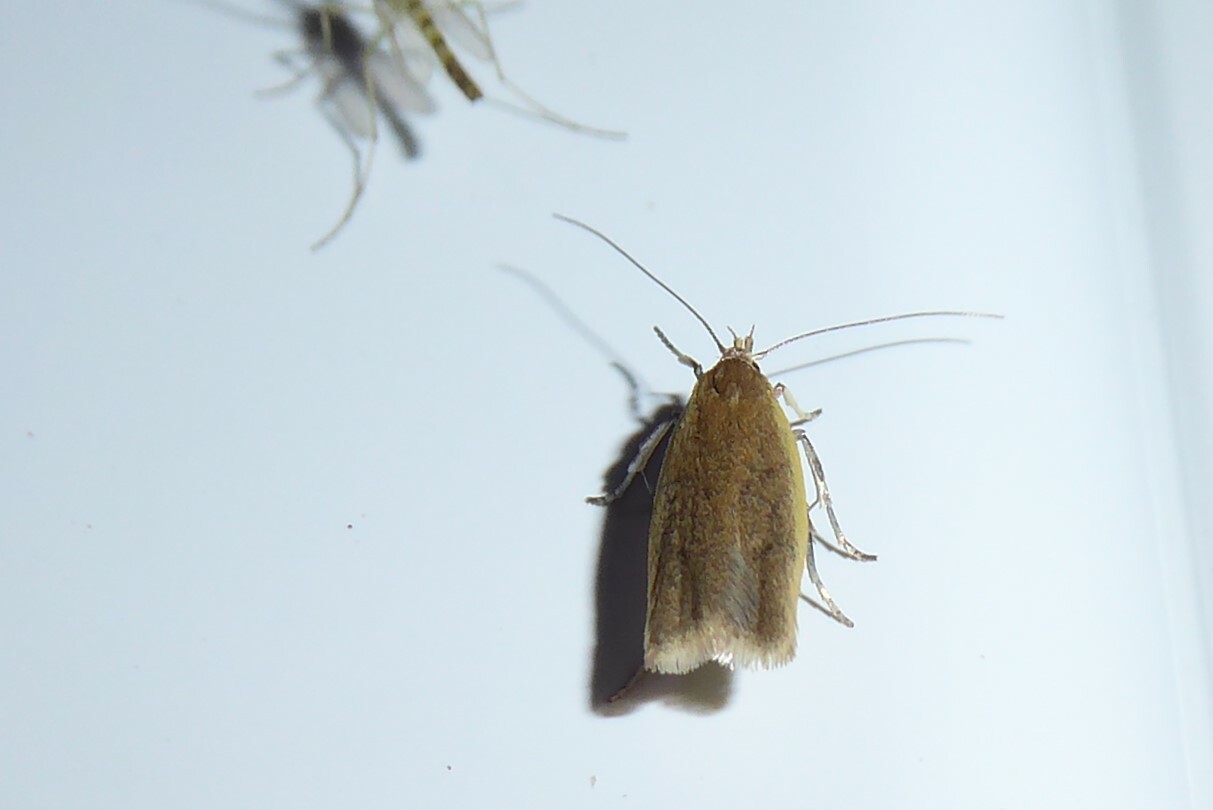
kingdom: Animalia
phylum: Arthropoda
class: Insecta
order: Lepidoptera
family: Oecophoridae
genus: Gymnobathra
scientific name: Gymnobathra parca
